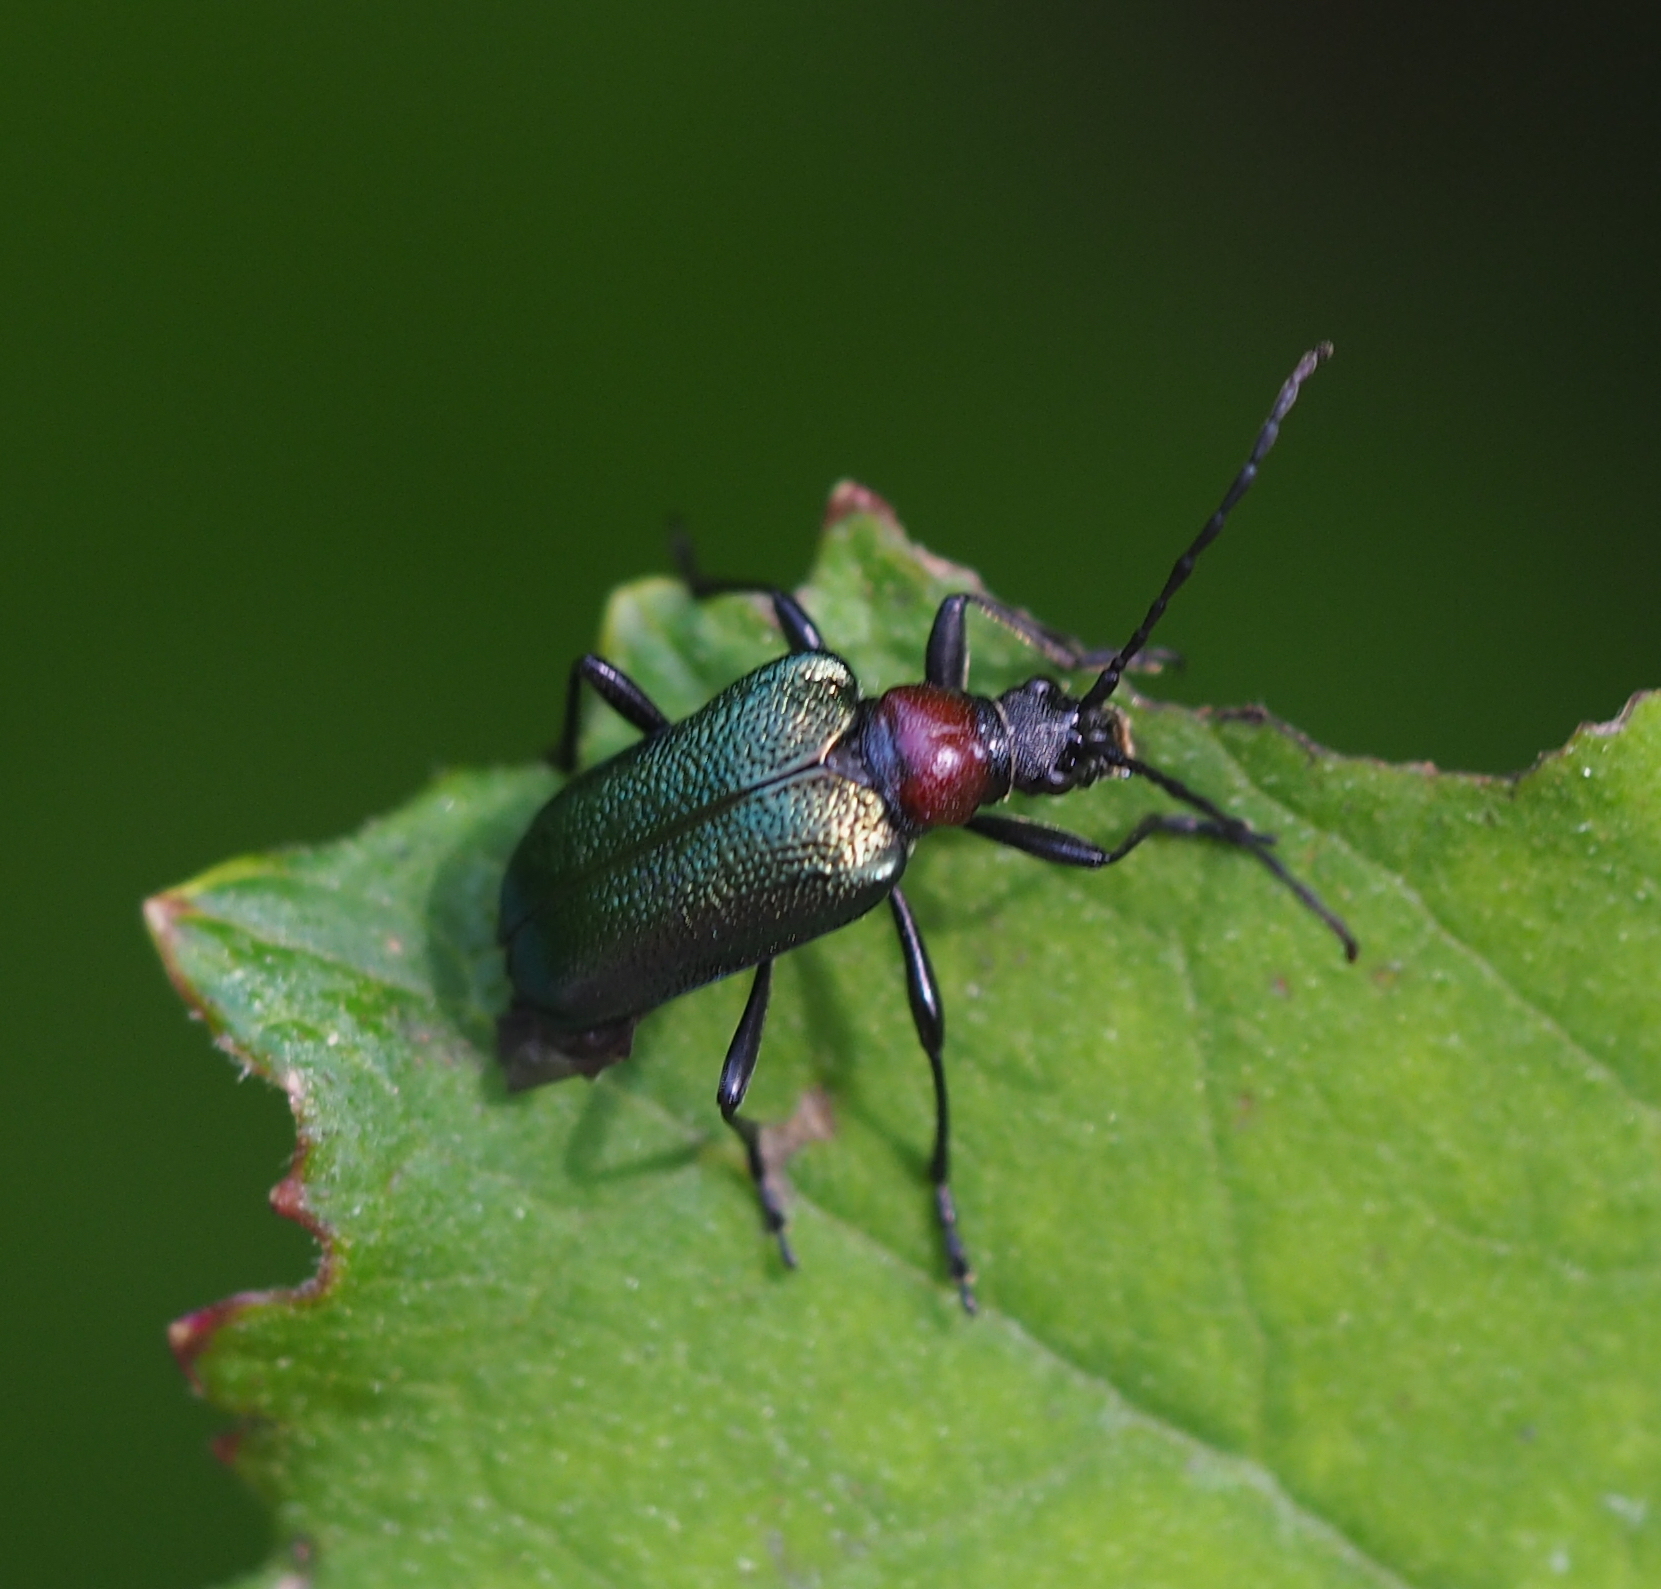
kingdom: Animalia
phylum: Arthropoda
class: Insecta
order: Coleoptera
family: Cerambycidae
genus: Gaurotes
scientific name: Gaurotes virginea
